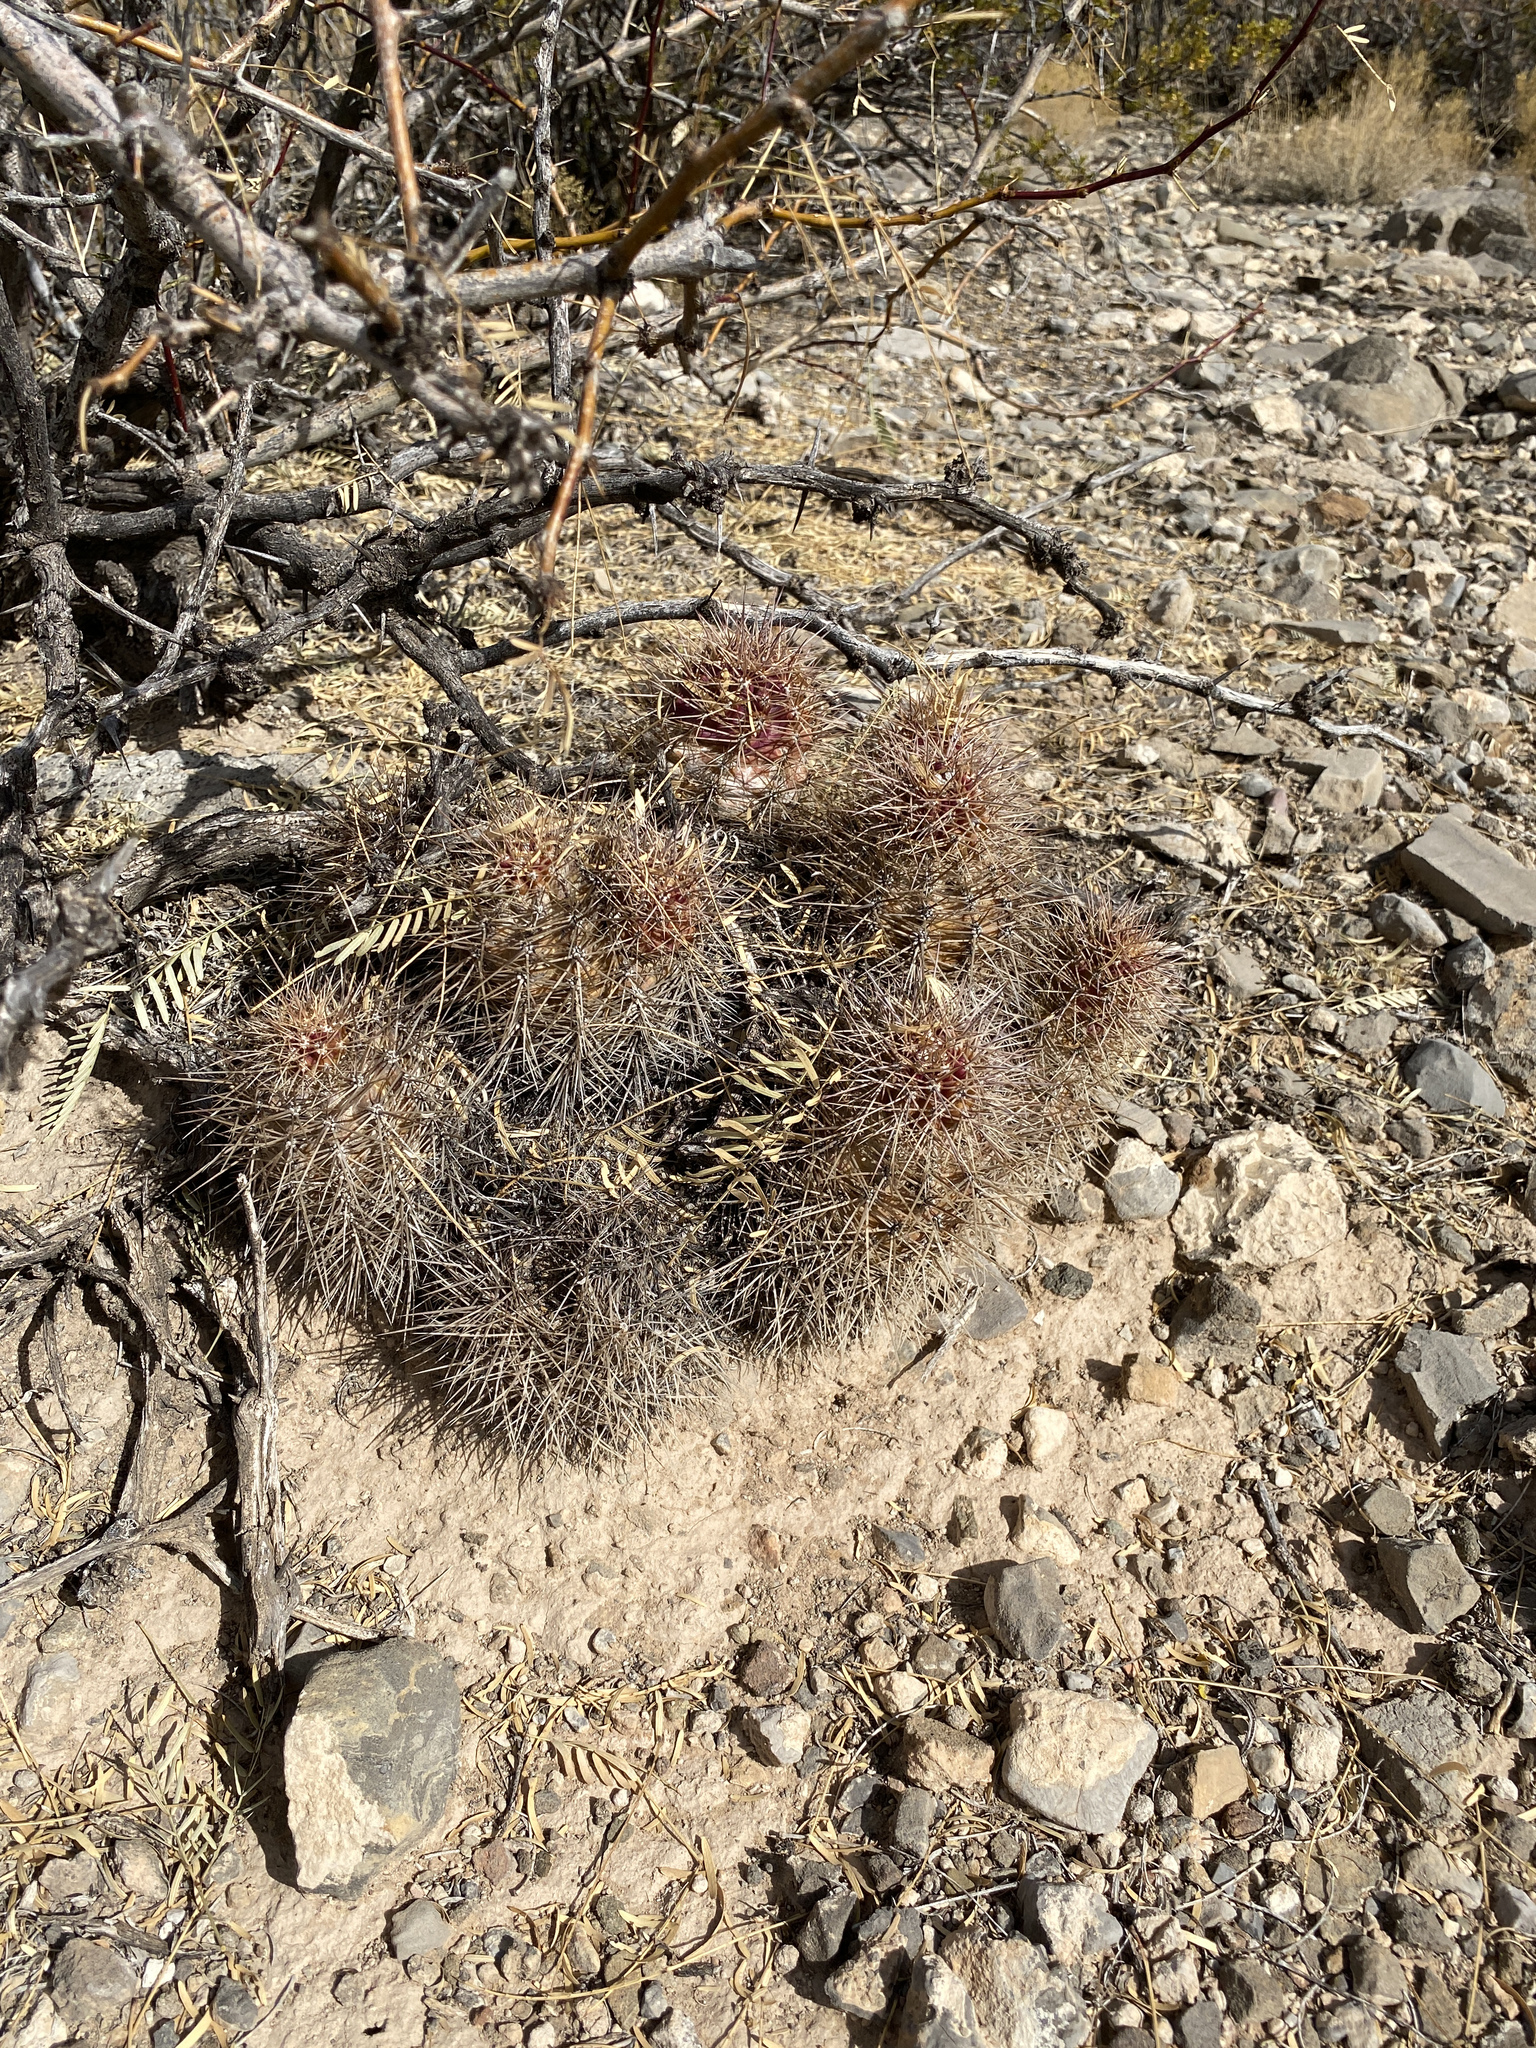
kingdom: Plantae
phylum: Tracheophyta
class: Magnoliopsida
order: Caryophyllales
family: Cactaceae
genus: Echinocereus
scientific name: Echinocereus coccineus
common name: Scarlet hedgehog cactus
